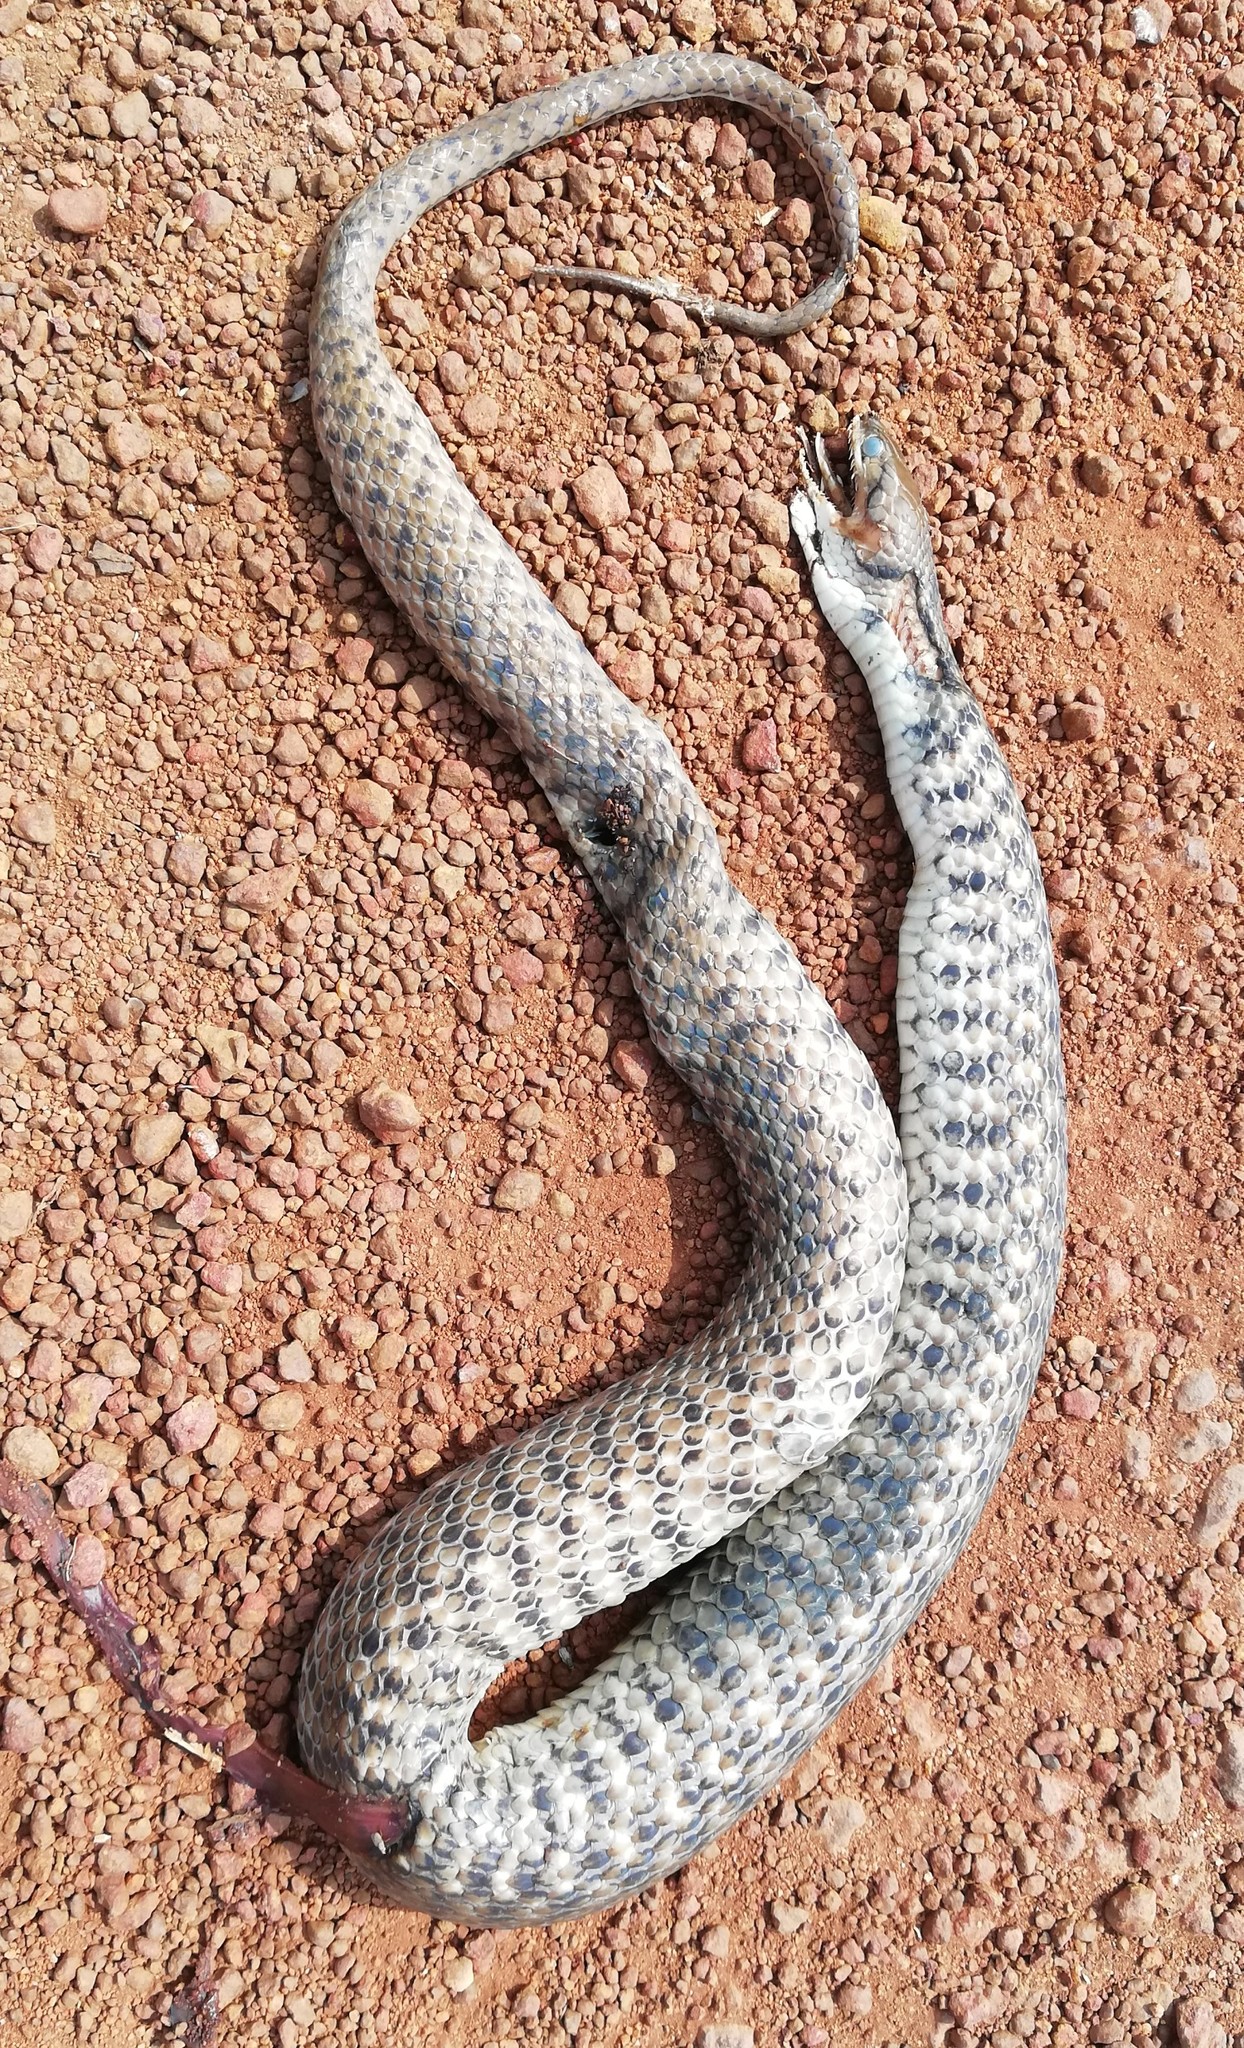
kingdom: Animalia
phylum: Chordata
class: Squamata
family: Colubridae
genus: Fowlea
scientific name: Fowlea piscator
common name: Asiatic water snake
